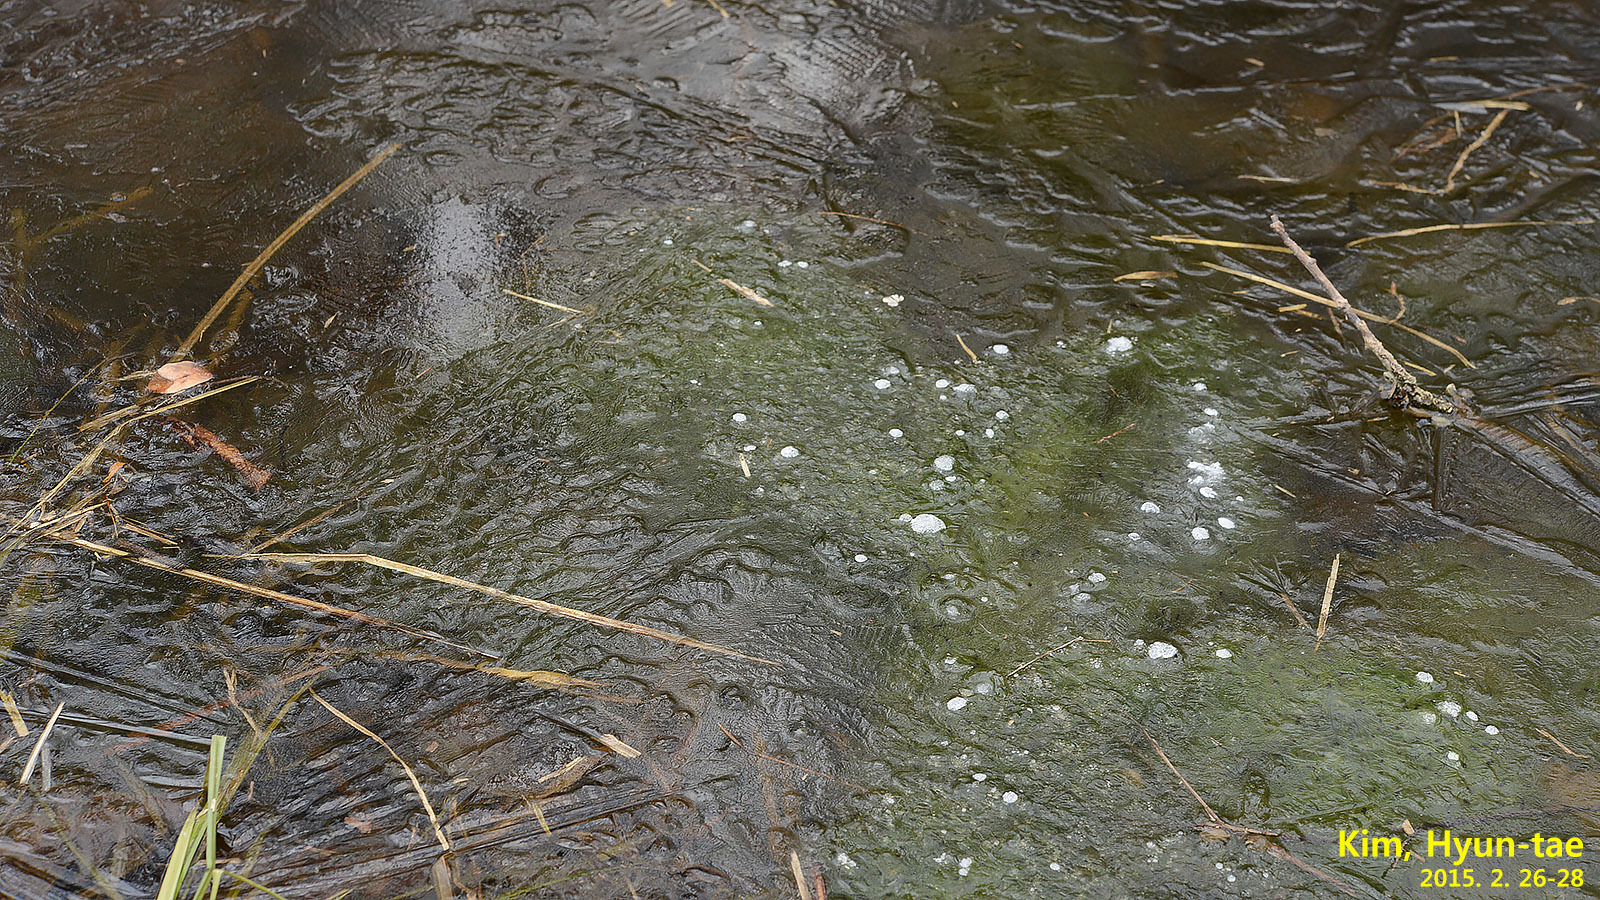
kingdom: Animalia
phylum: Chordata
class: Amphibia
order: Anura
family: Ranidae
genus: Rana
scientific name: Rana uenoi
